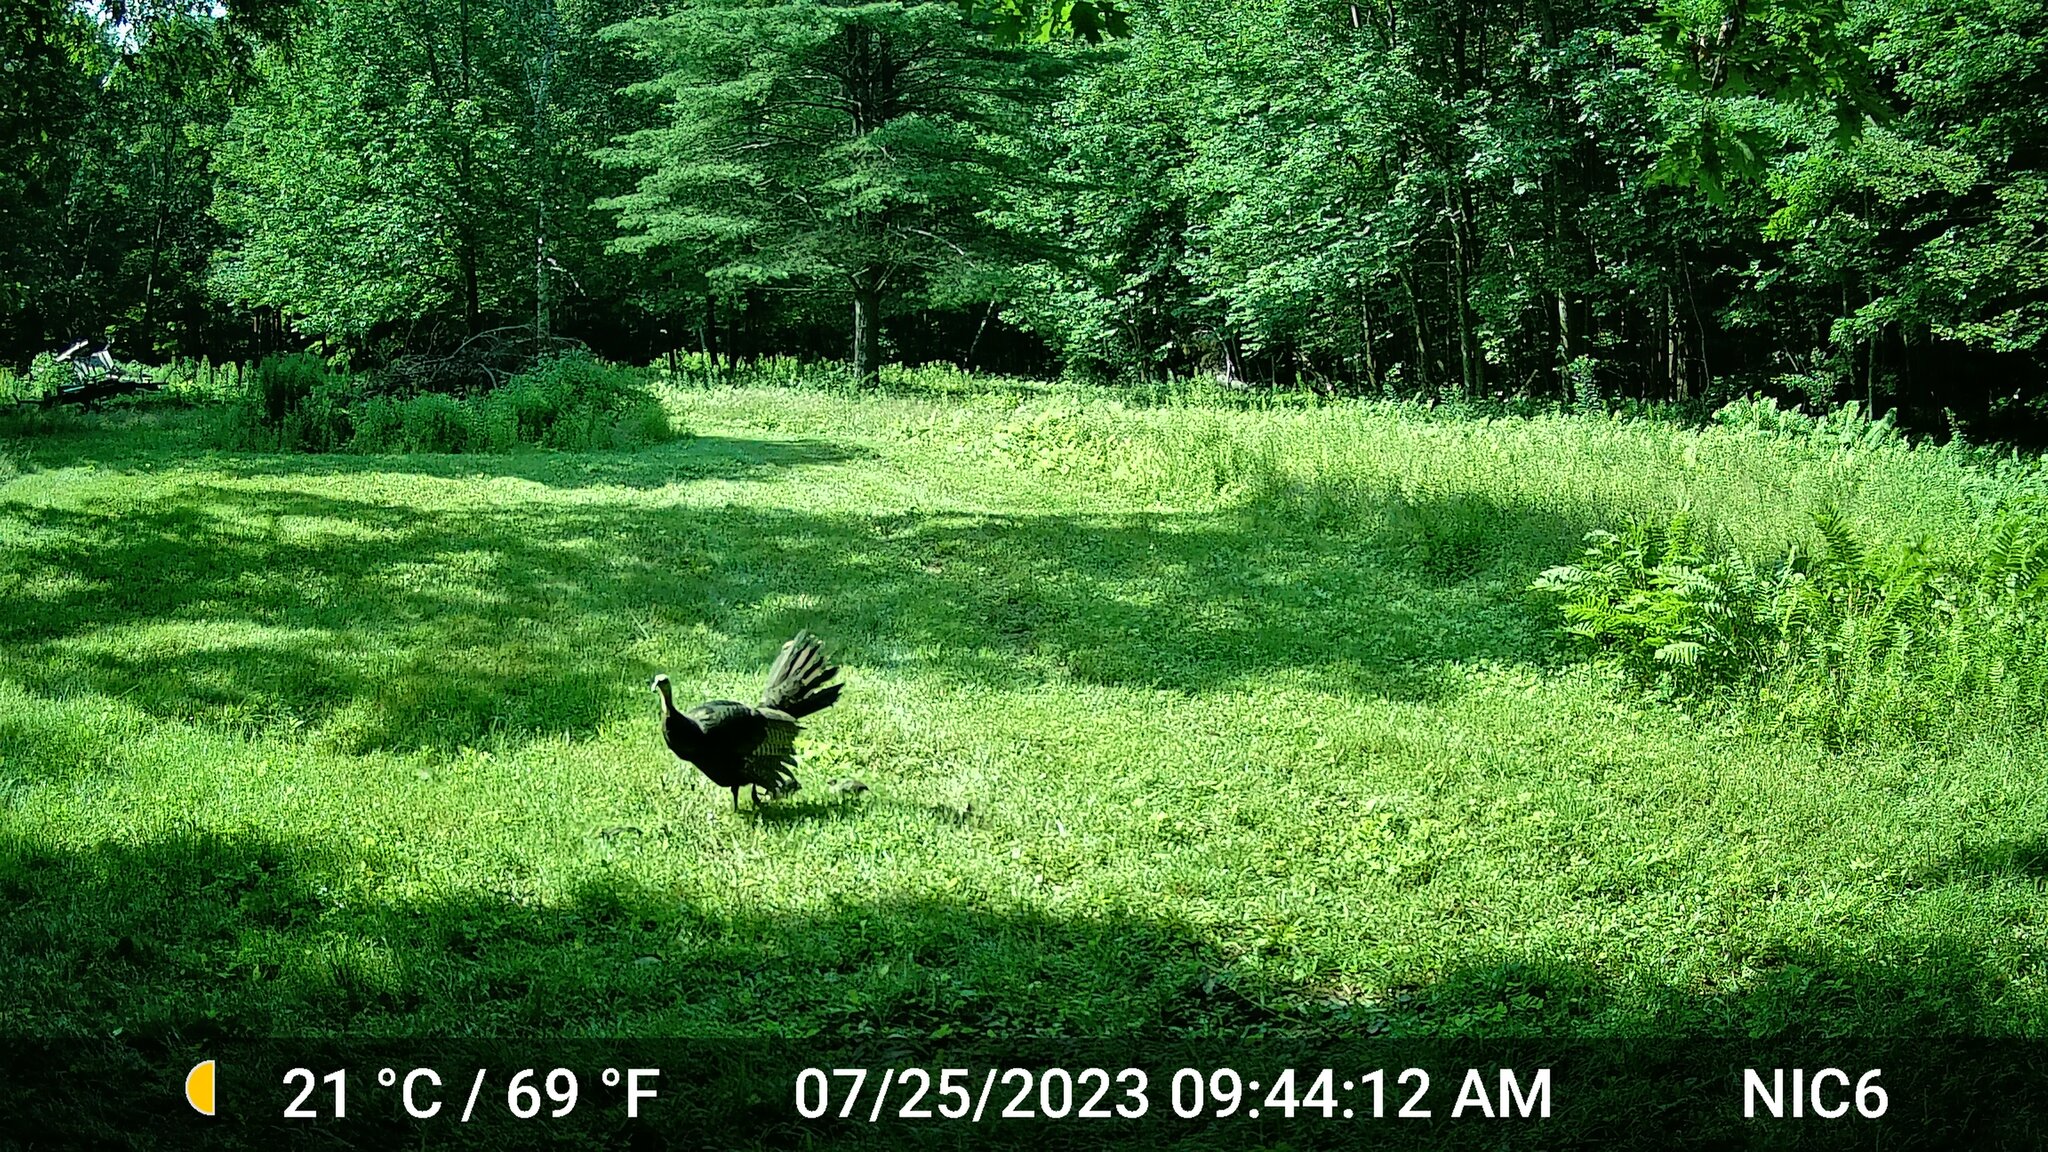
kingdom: Animalia
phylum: Chordata
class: Aves
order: Galliformes
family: Phasianidae
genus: Meleagris
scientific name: Meleagris gallopavo
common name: Wild turkey
